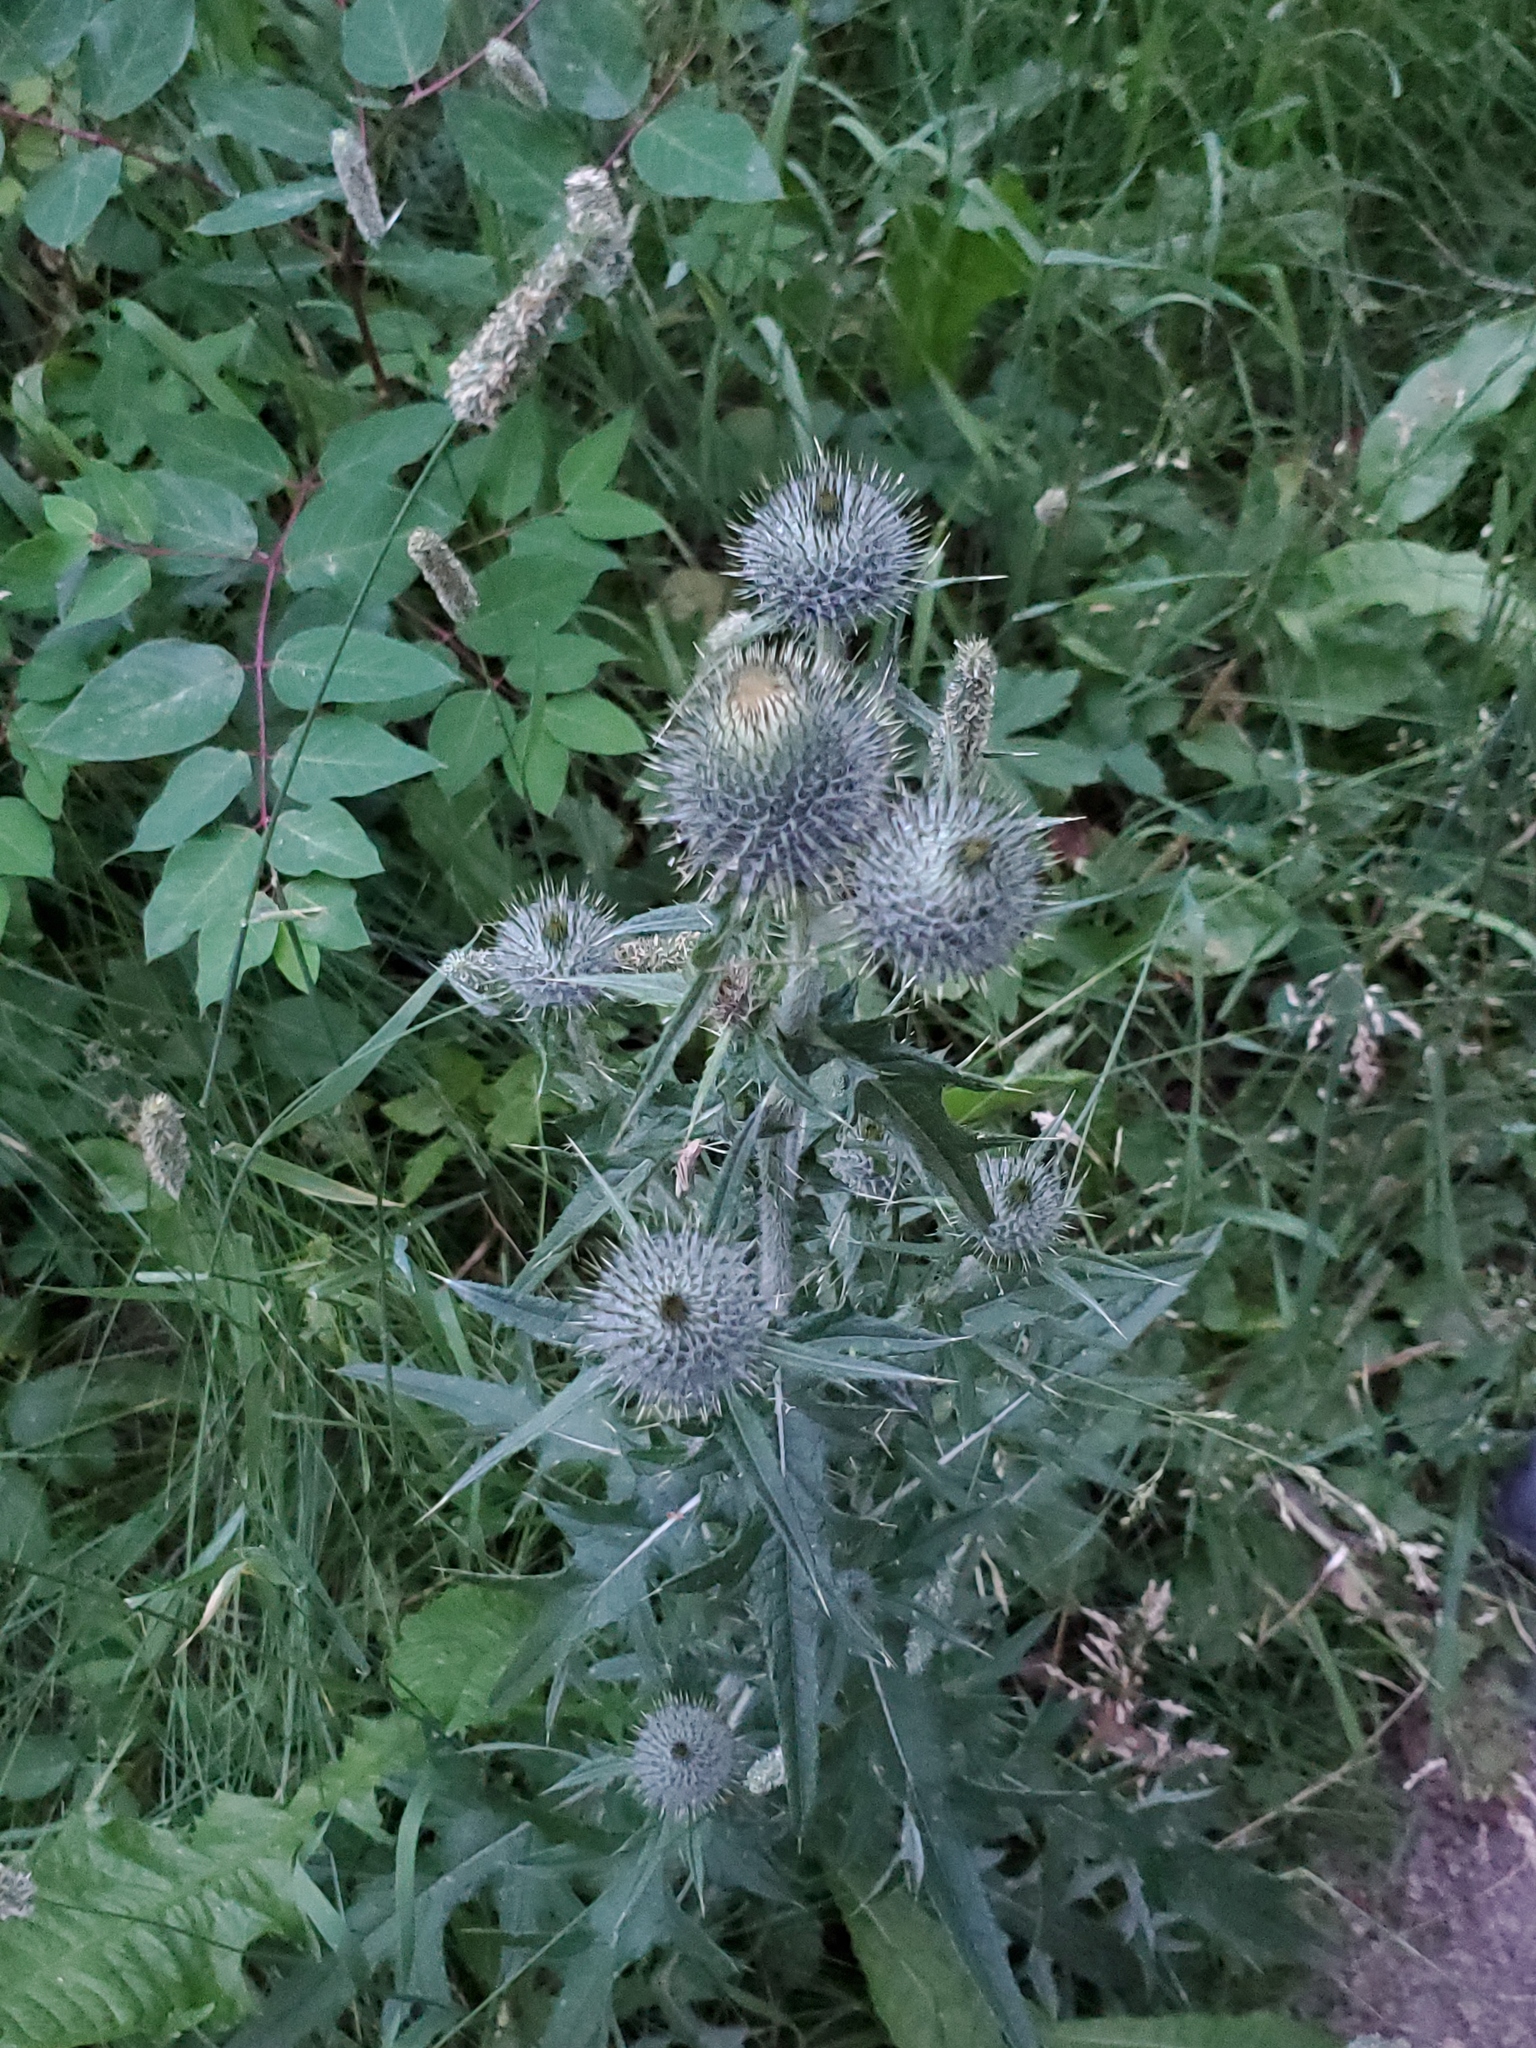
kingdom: Plantae
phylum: Tracheophyta
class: Magnoliopsida
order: Asterales
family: Asteraceae
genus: Cirsium
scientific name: Cirsium vulgare
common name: Bull thistle
